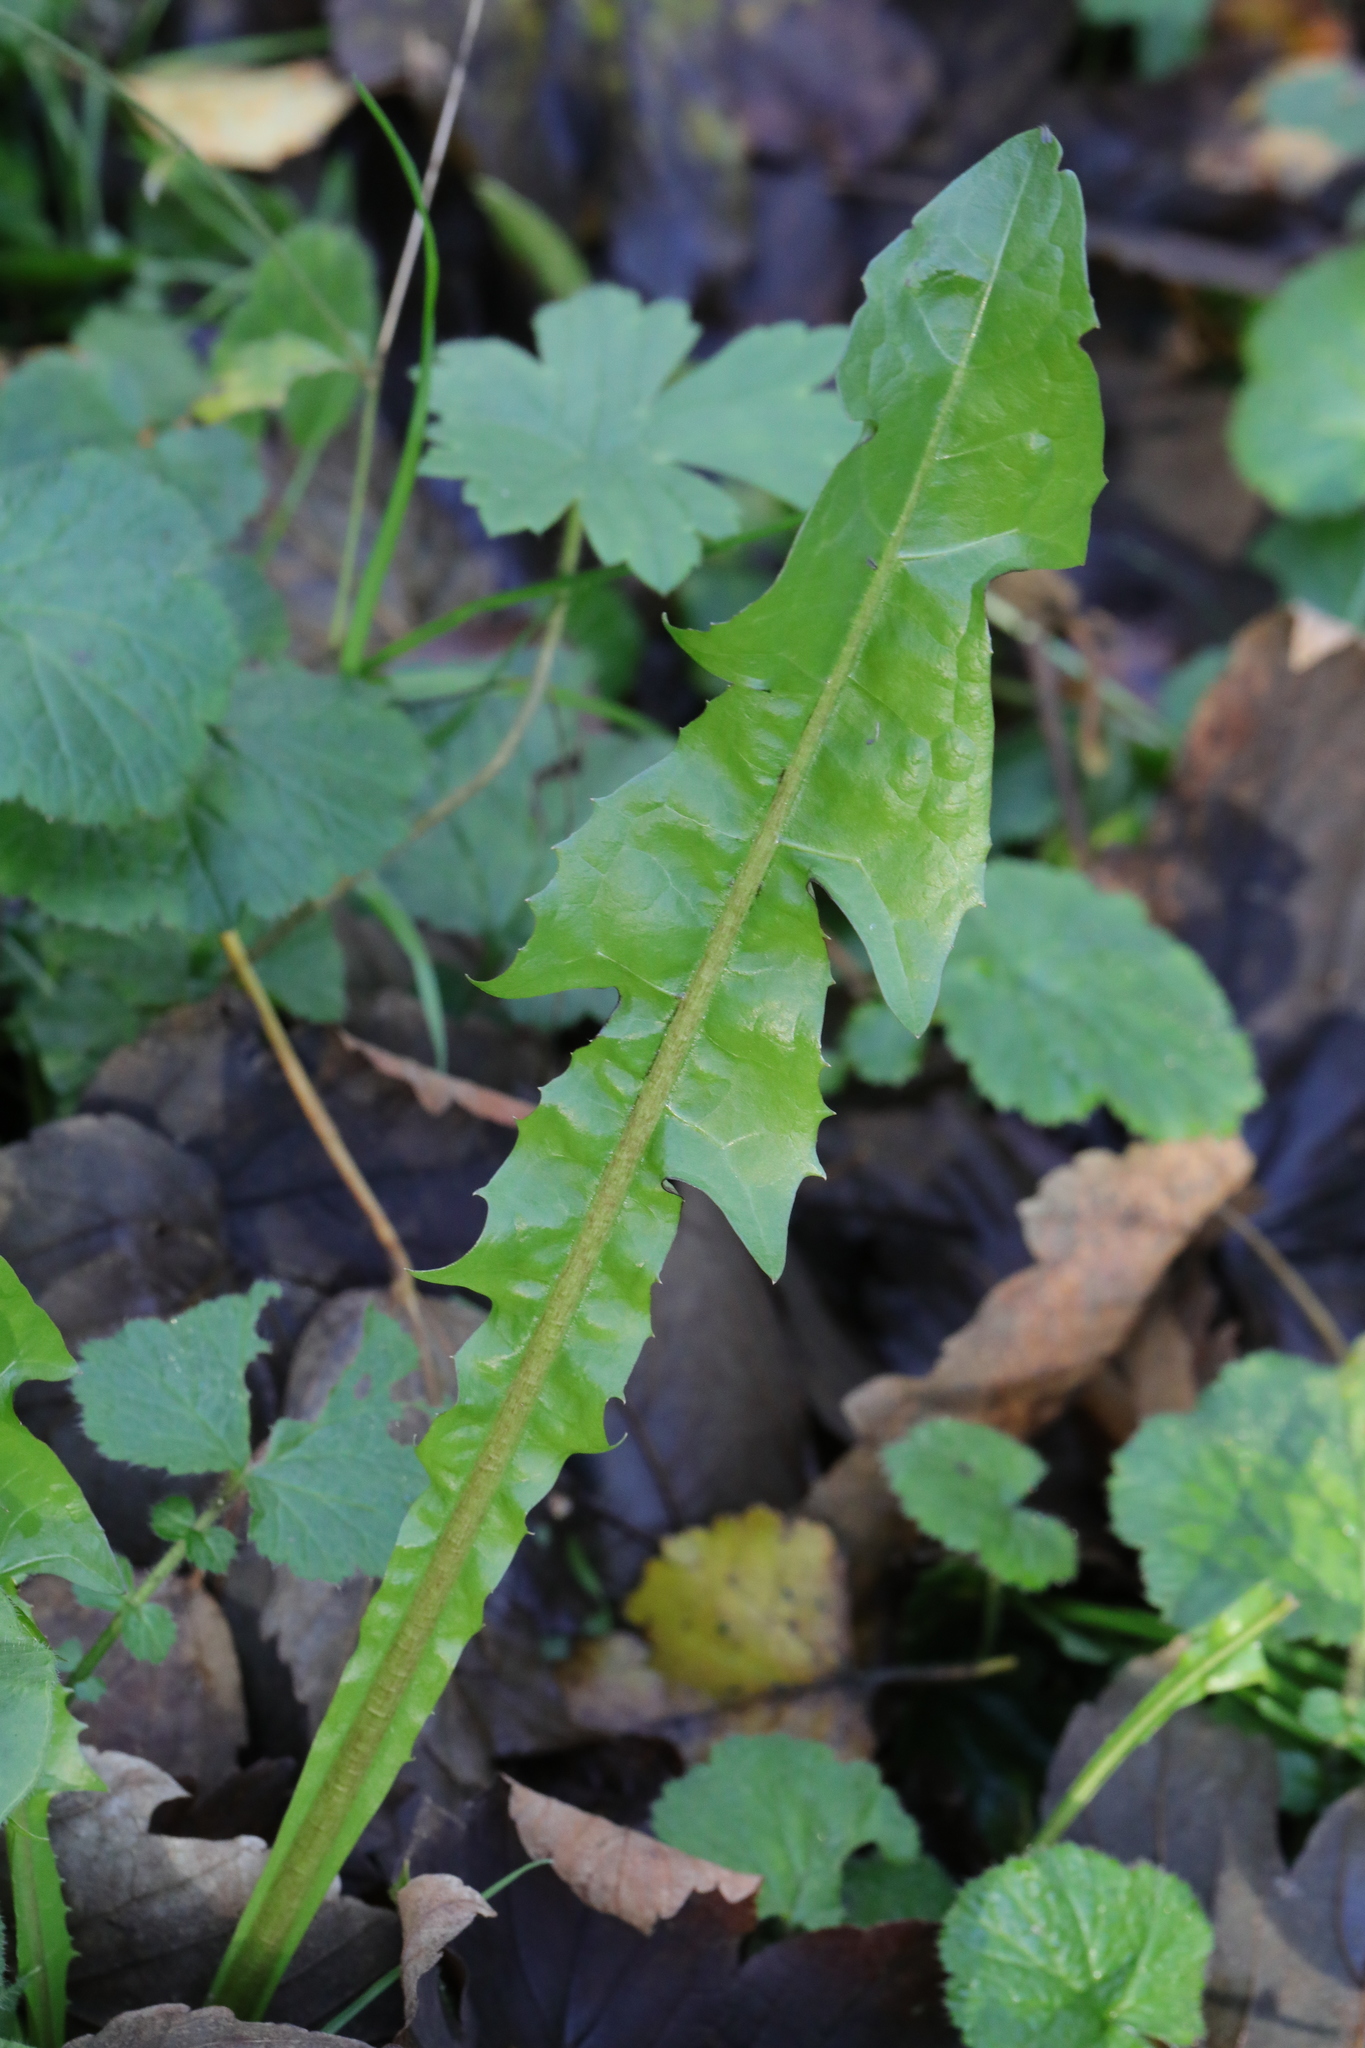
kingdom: Plantae
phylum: Tracheophyta
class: Magnoliopsida
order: Asterales
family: Asteraceae
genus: Taraxacum
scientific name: Taraxacum officinale
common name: Common dandelion
